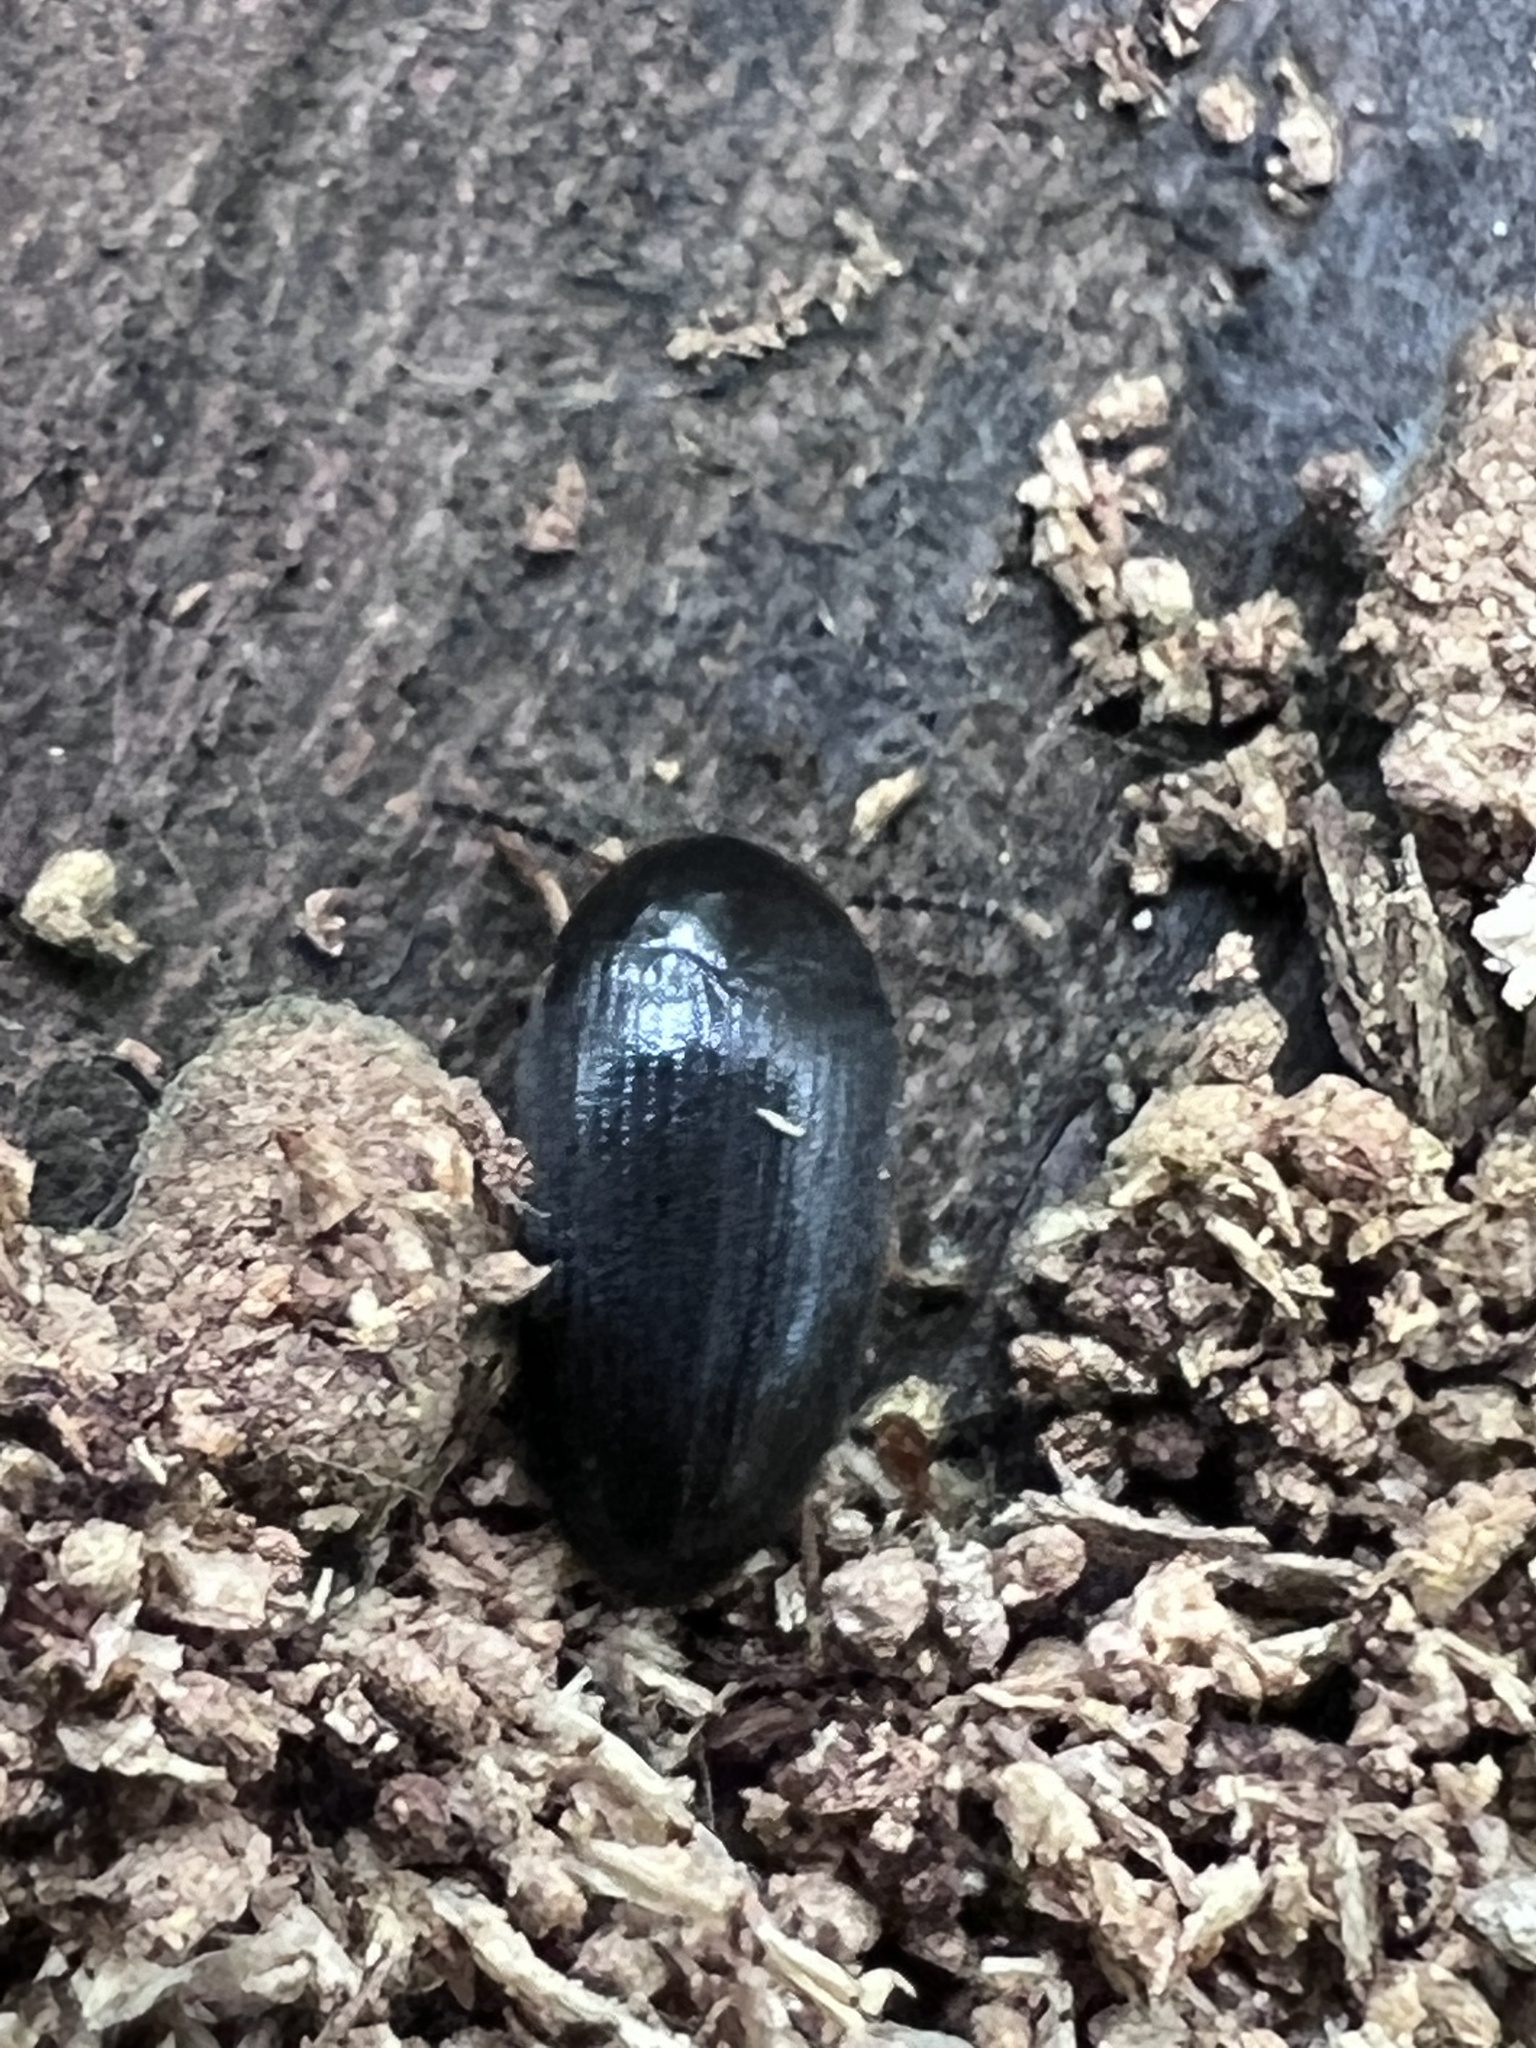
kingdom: Animalia
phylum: Arthropoda
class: Insecta
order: Coleoptera
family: Tetratomidae
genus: Eustrophopsis
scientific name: Eustrophopsis bicolor
